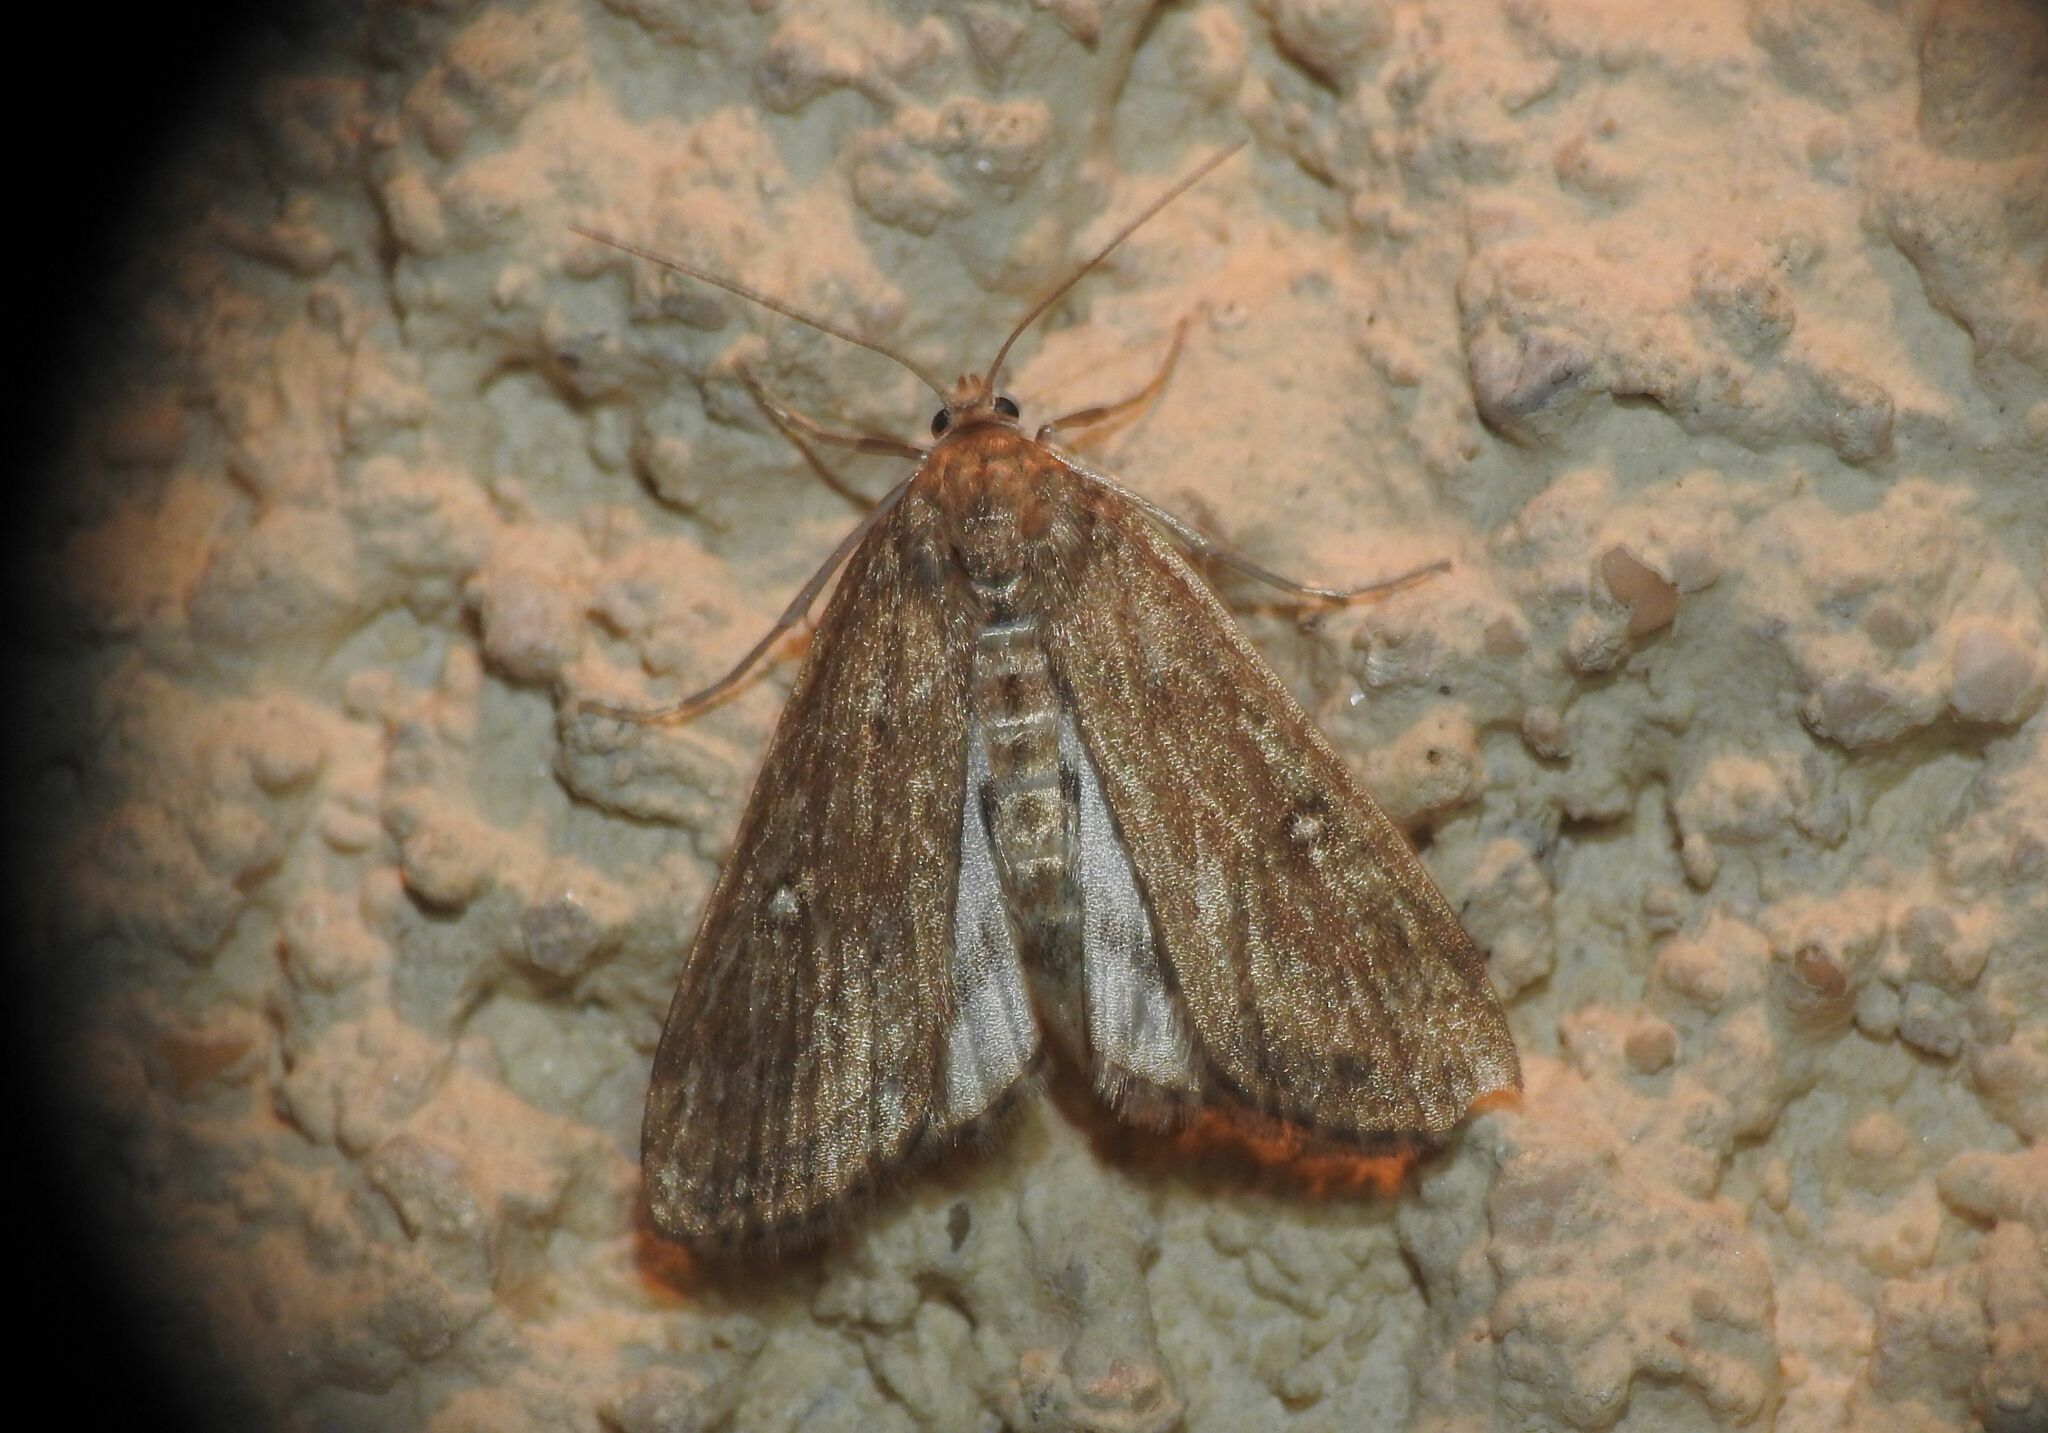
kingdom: Animalia
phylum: Arthropoda
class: Insecta
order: Lepidoptera
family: Crambidae
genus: Parapoynx
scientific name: Parapoynx stratiotata
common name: Ringed china-mark
